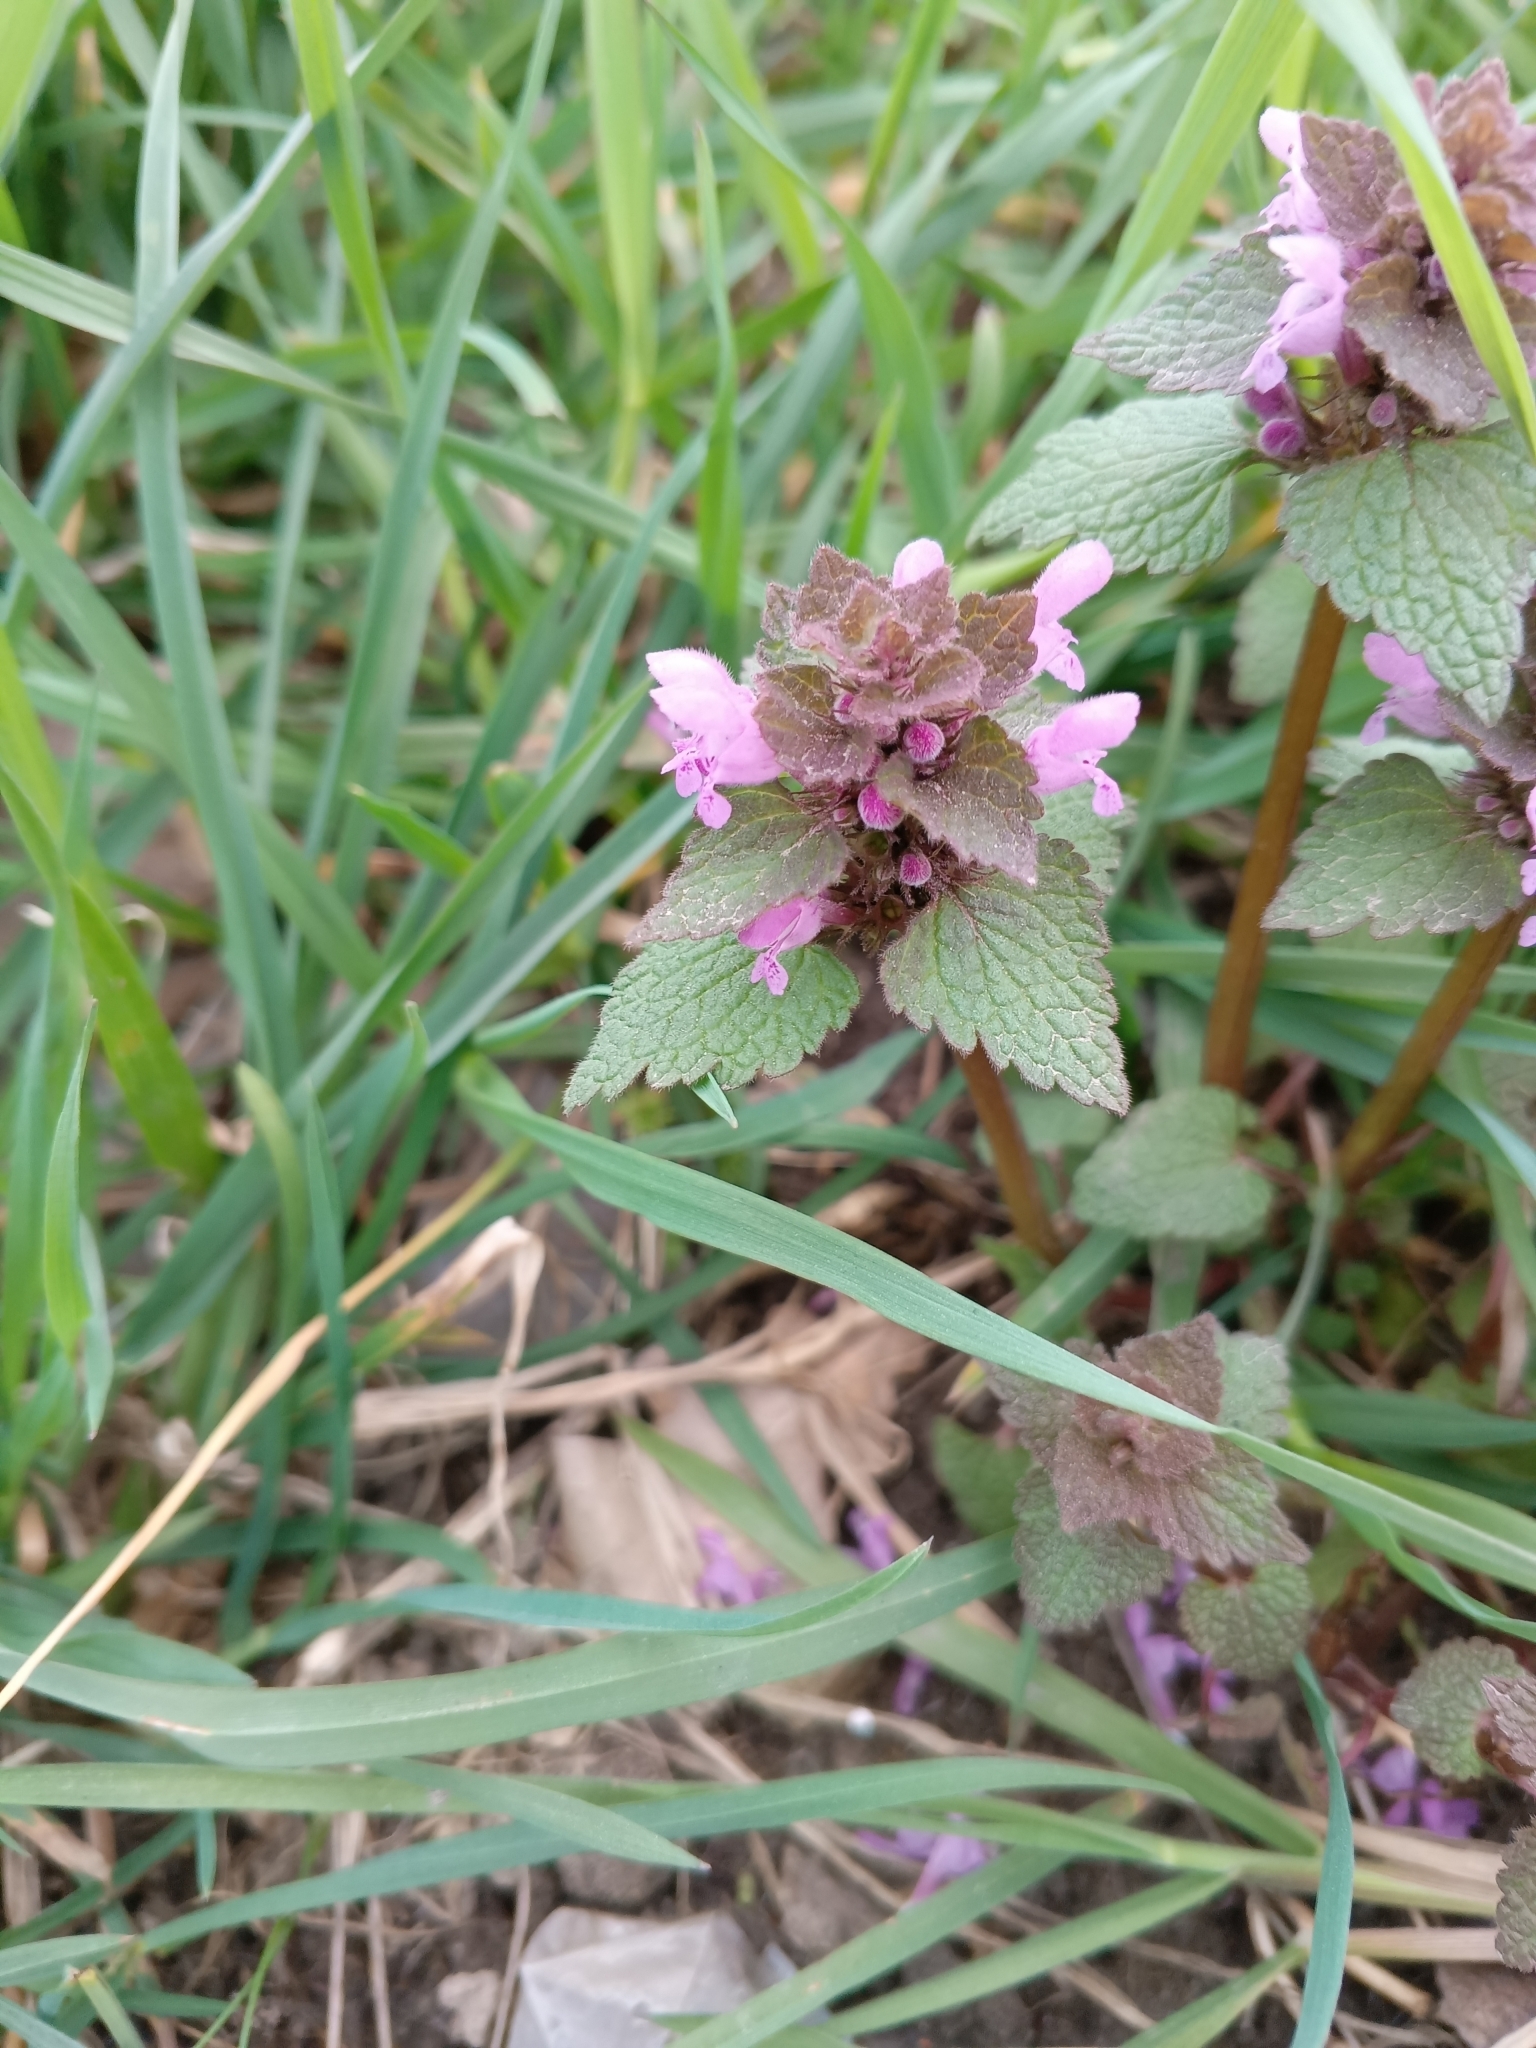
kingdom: Plantae
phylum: Tracheophyta
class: Magnoliopsida
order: Lamiales
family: Lamiaceae
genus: Lamium
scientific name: Lamium purpureum
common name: Red dead-nettle
